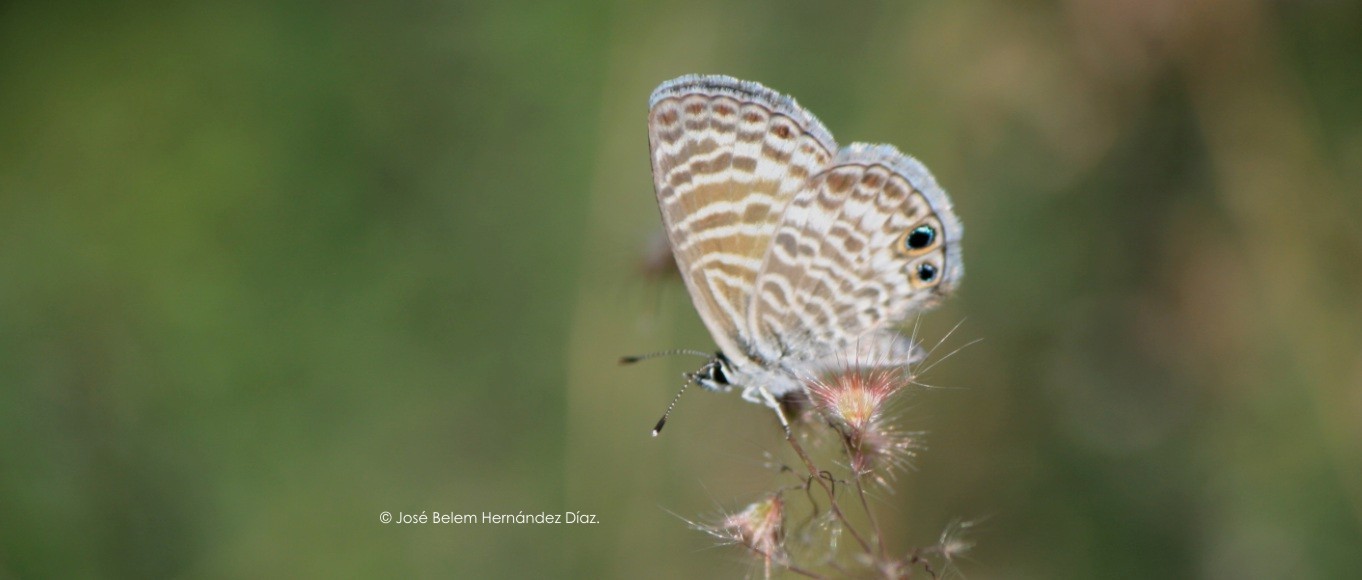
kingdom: Animalia
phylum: Arthropoda
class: Insecta
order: Lepidoptera
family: Lycaenidae
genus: Leptotes
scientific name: Leptotes marina
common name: Marine blue
